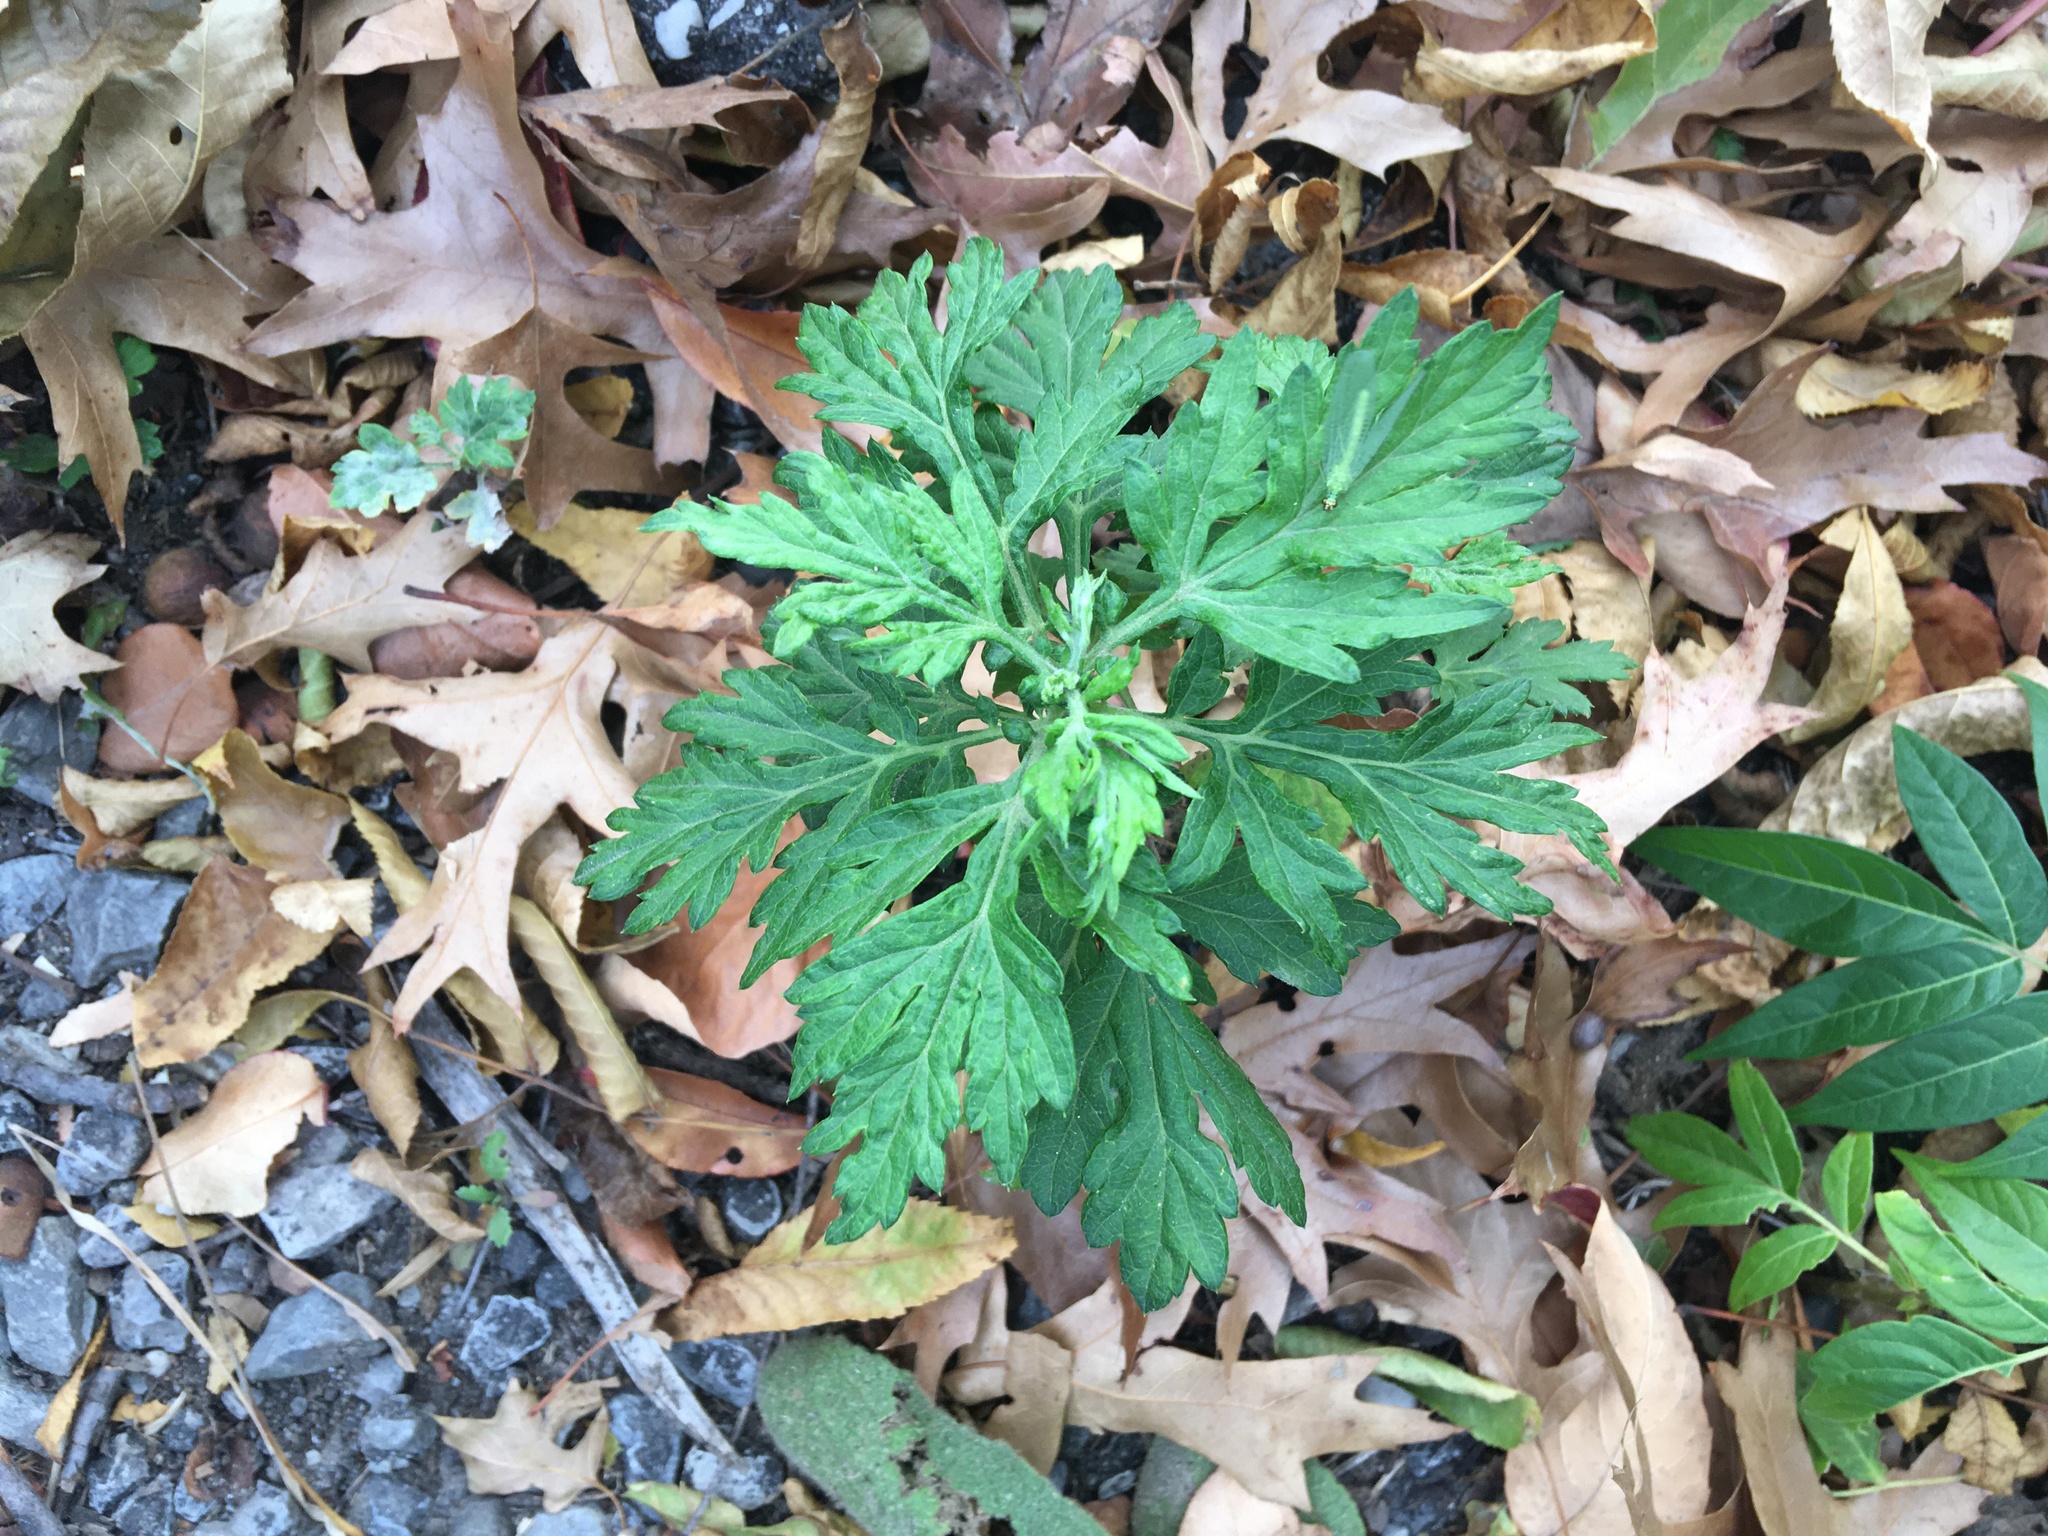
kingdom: Plantae
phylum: Tracheophyta
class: Magnoliopsida
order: Asterales
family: Asteraceae
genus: Artemisia
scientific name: Artemisia vulgaris
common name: Mugwort
